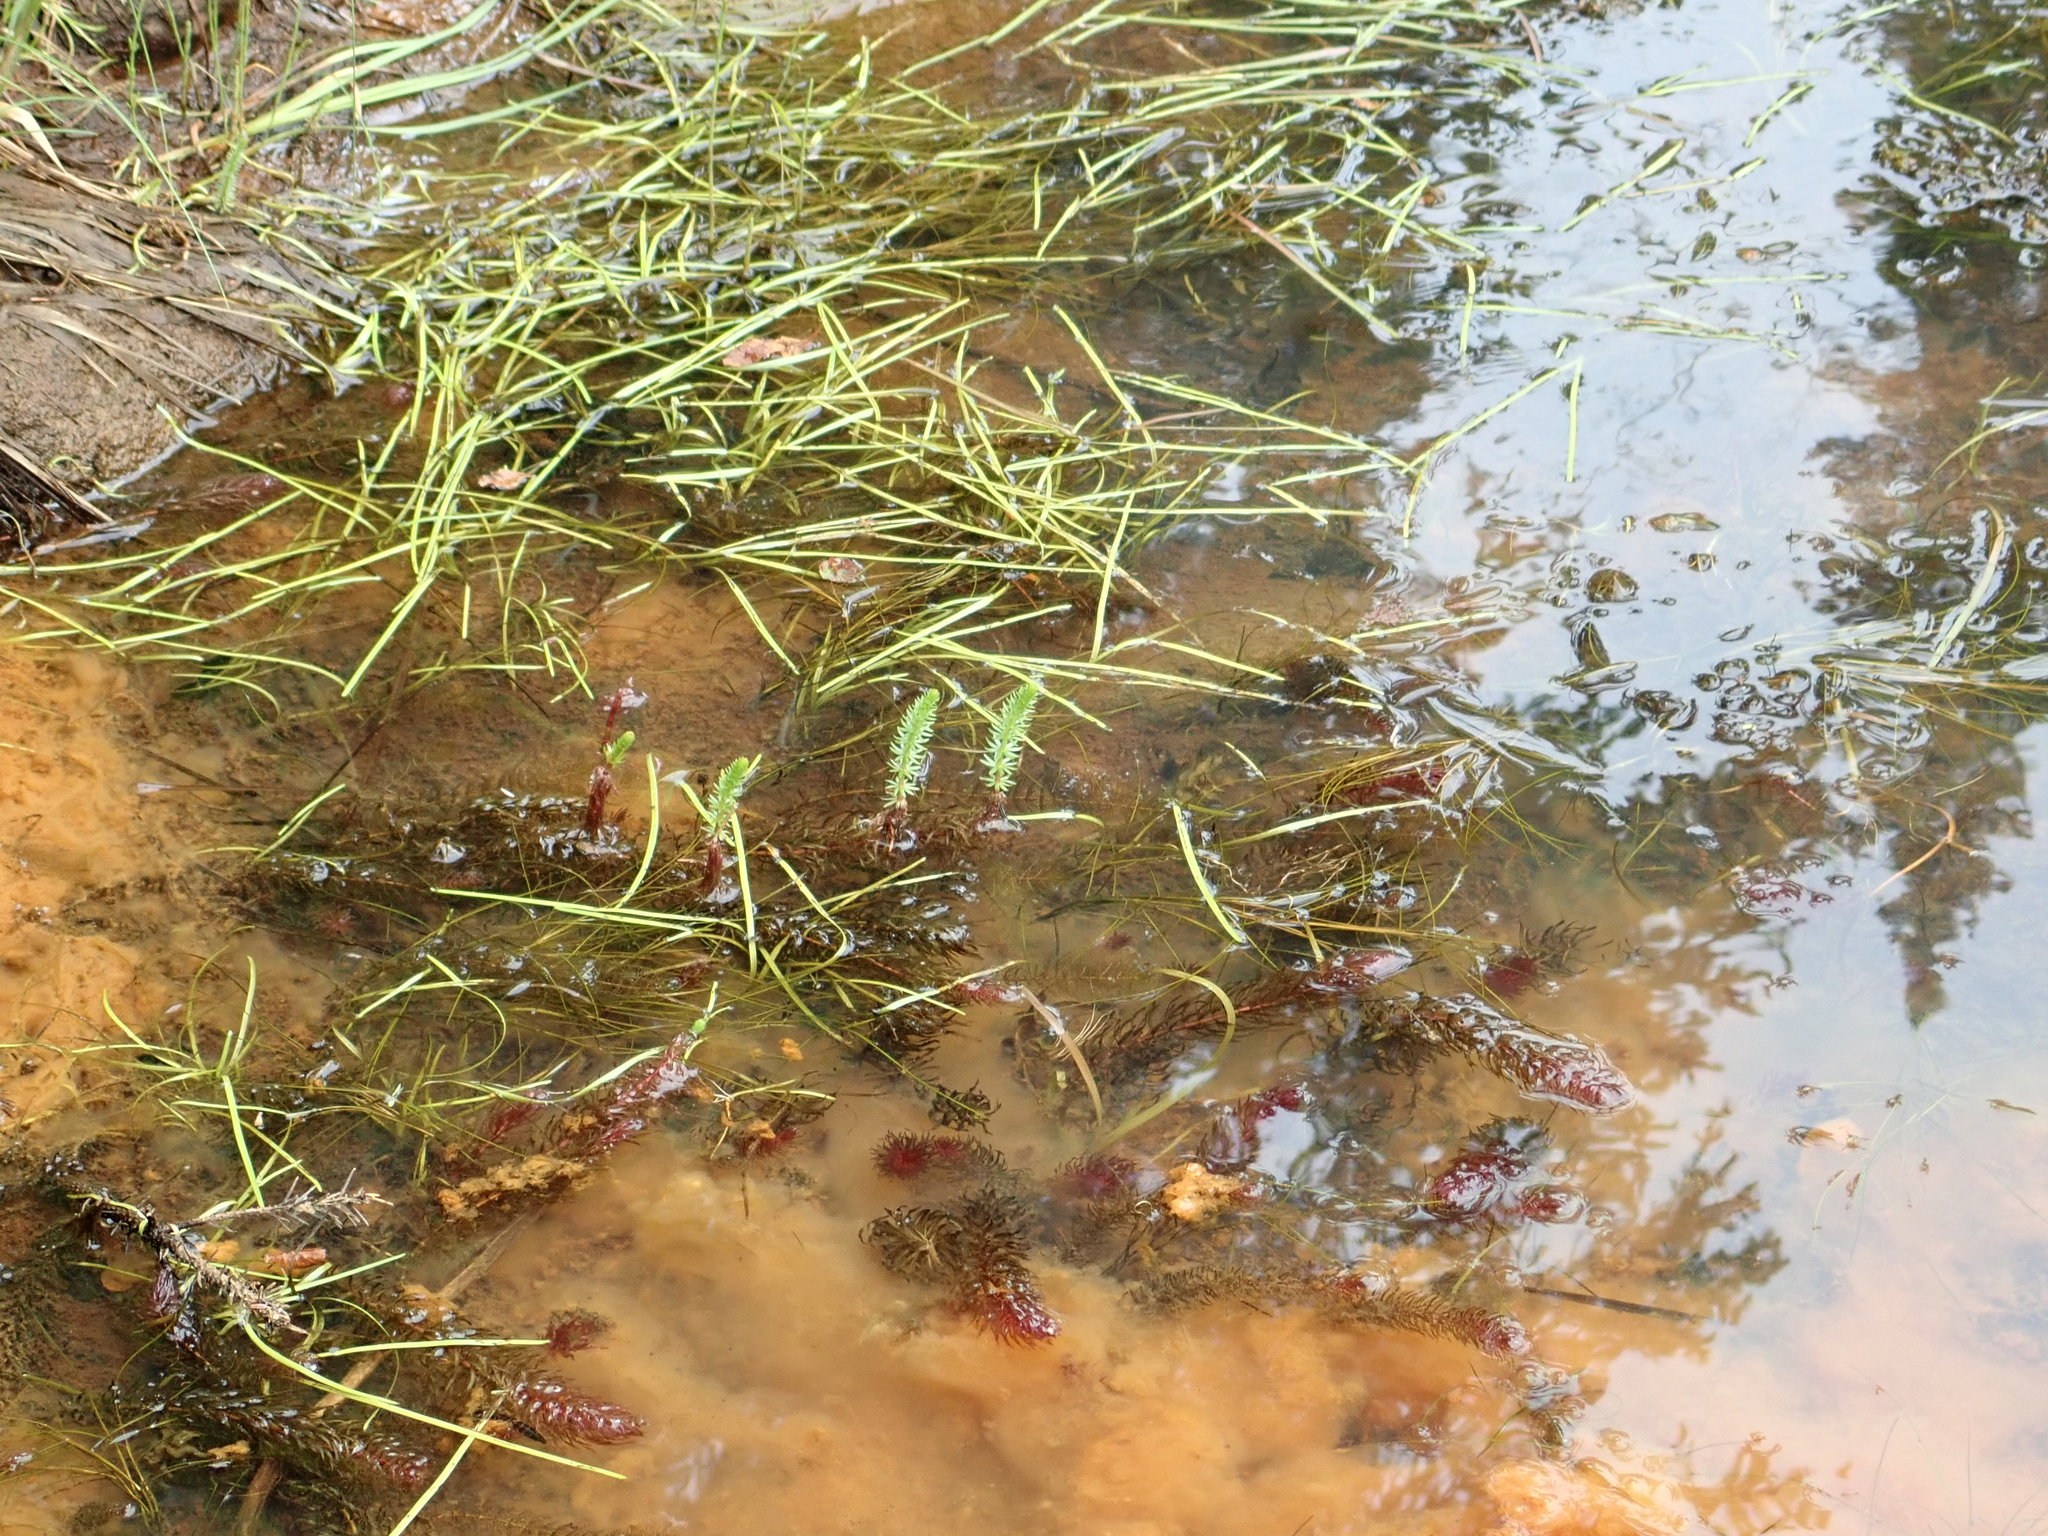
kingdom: Plantae
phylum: Tracheophyta
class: Magnoliopsida
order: Lamiales
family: Plantaginaceae
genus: Hippuris
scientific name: Hippuris vulgaris
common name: Mare's-tail
